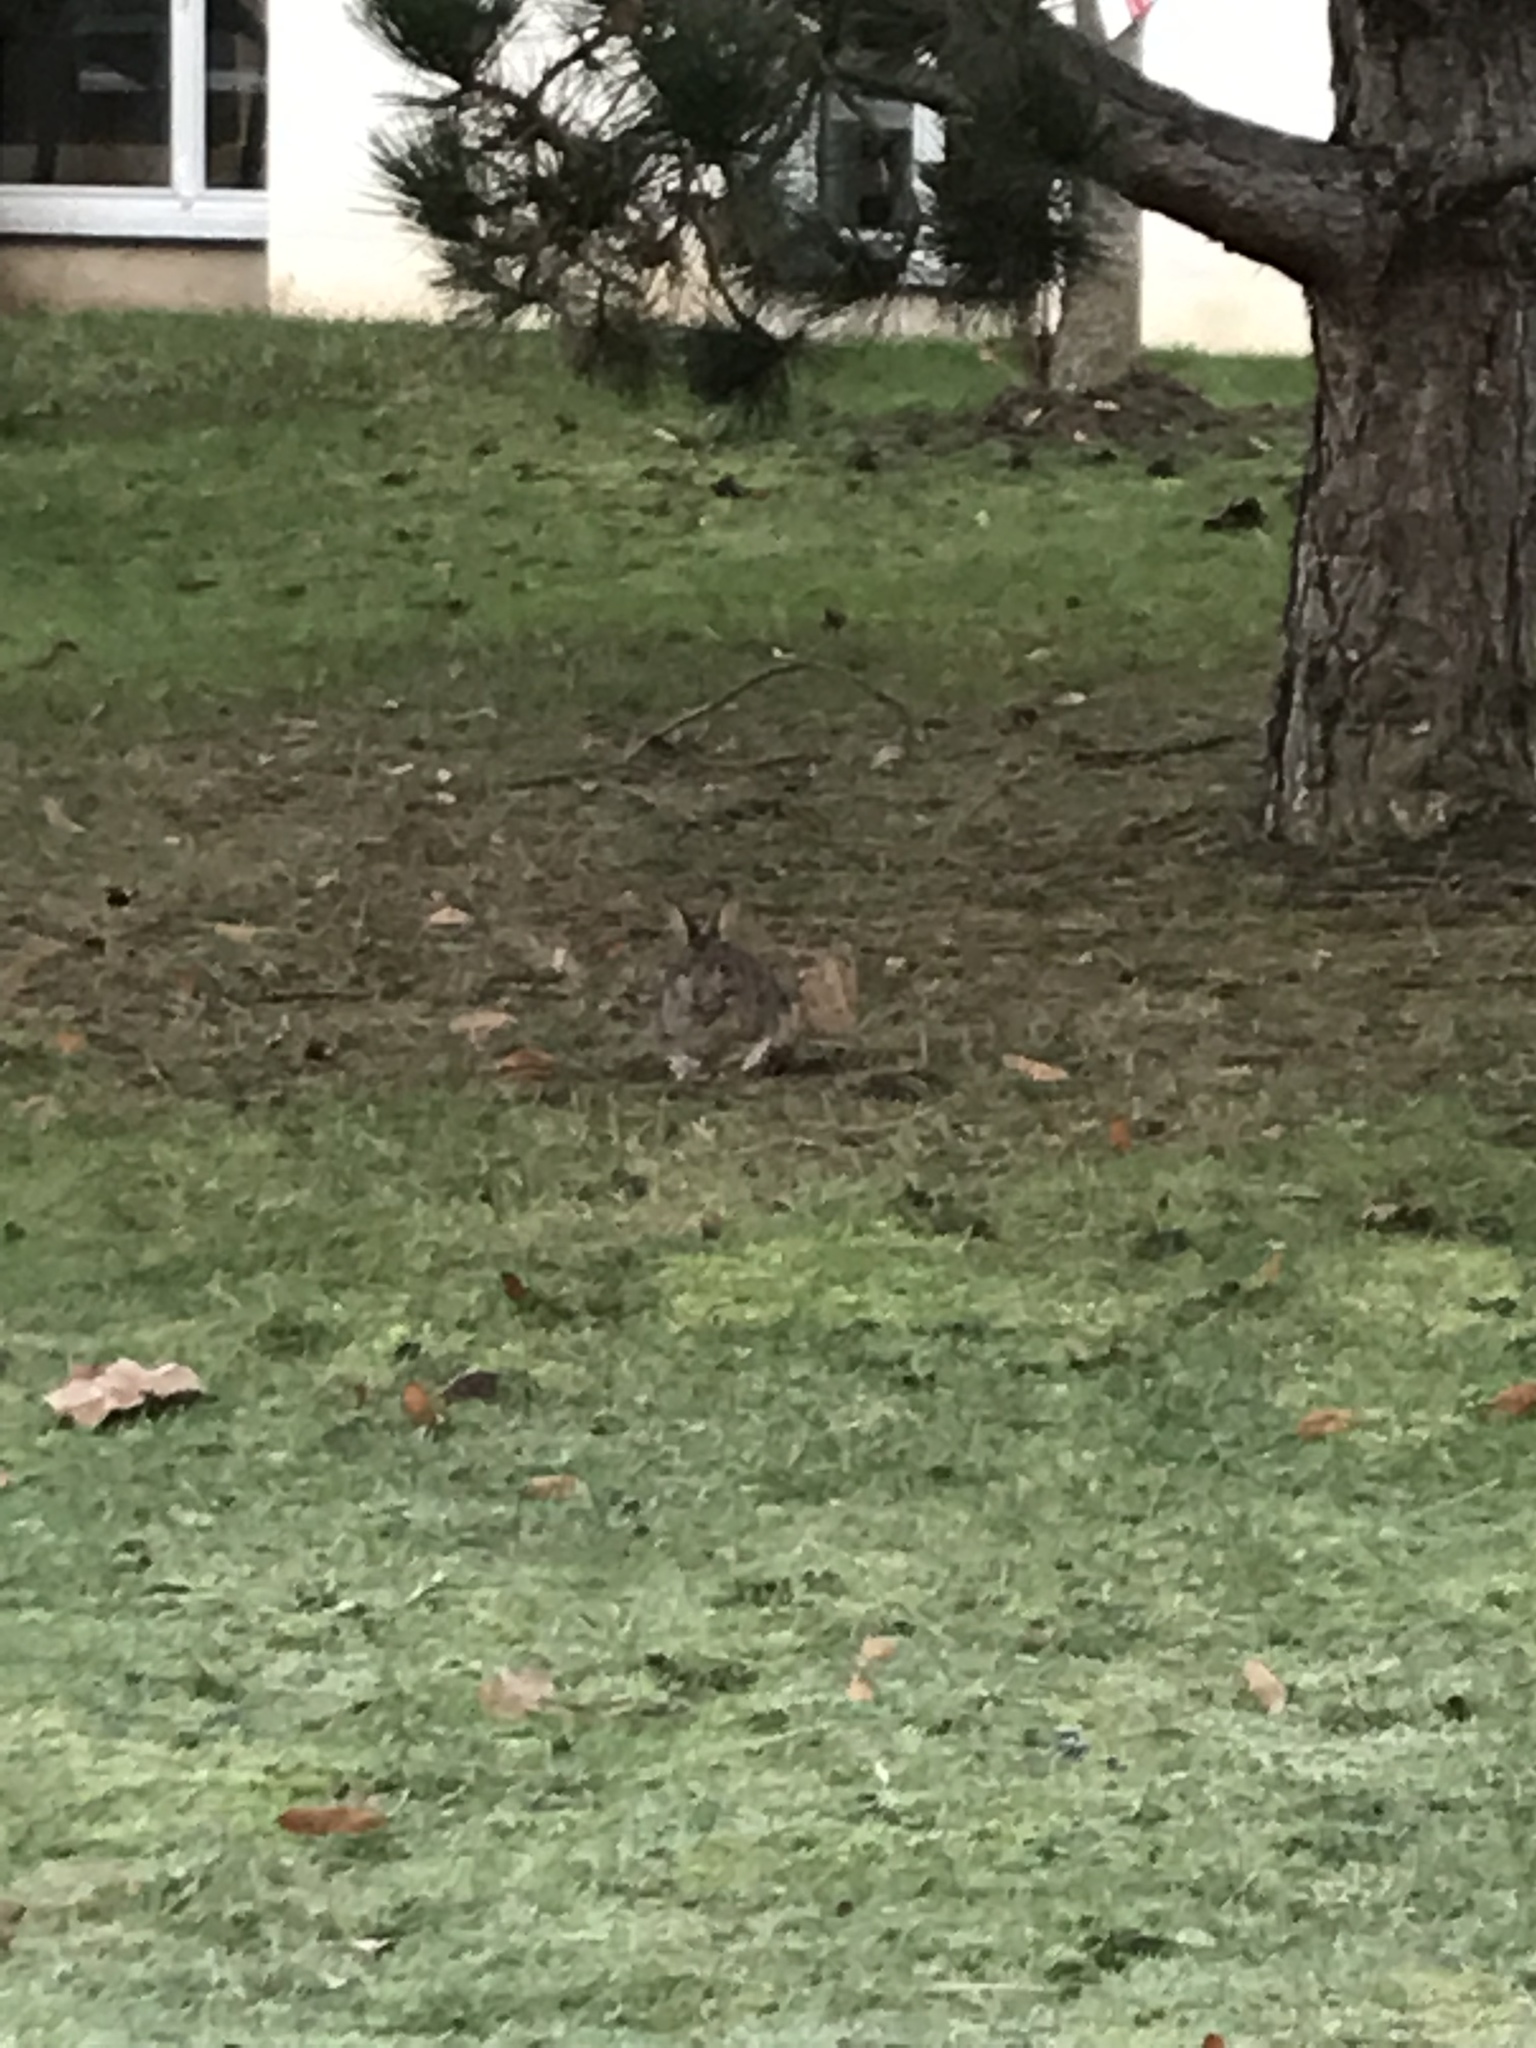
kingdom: Animalia
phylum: Chordata
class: Mammalia
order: Lagomorpha
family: Leporidae
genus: Oryctolagus
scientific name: Oryctolagus cuniculus
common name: European rabbit
